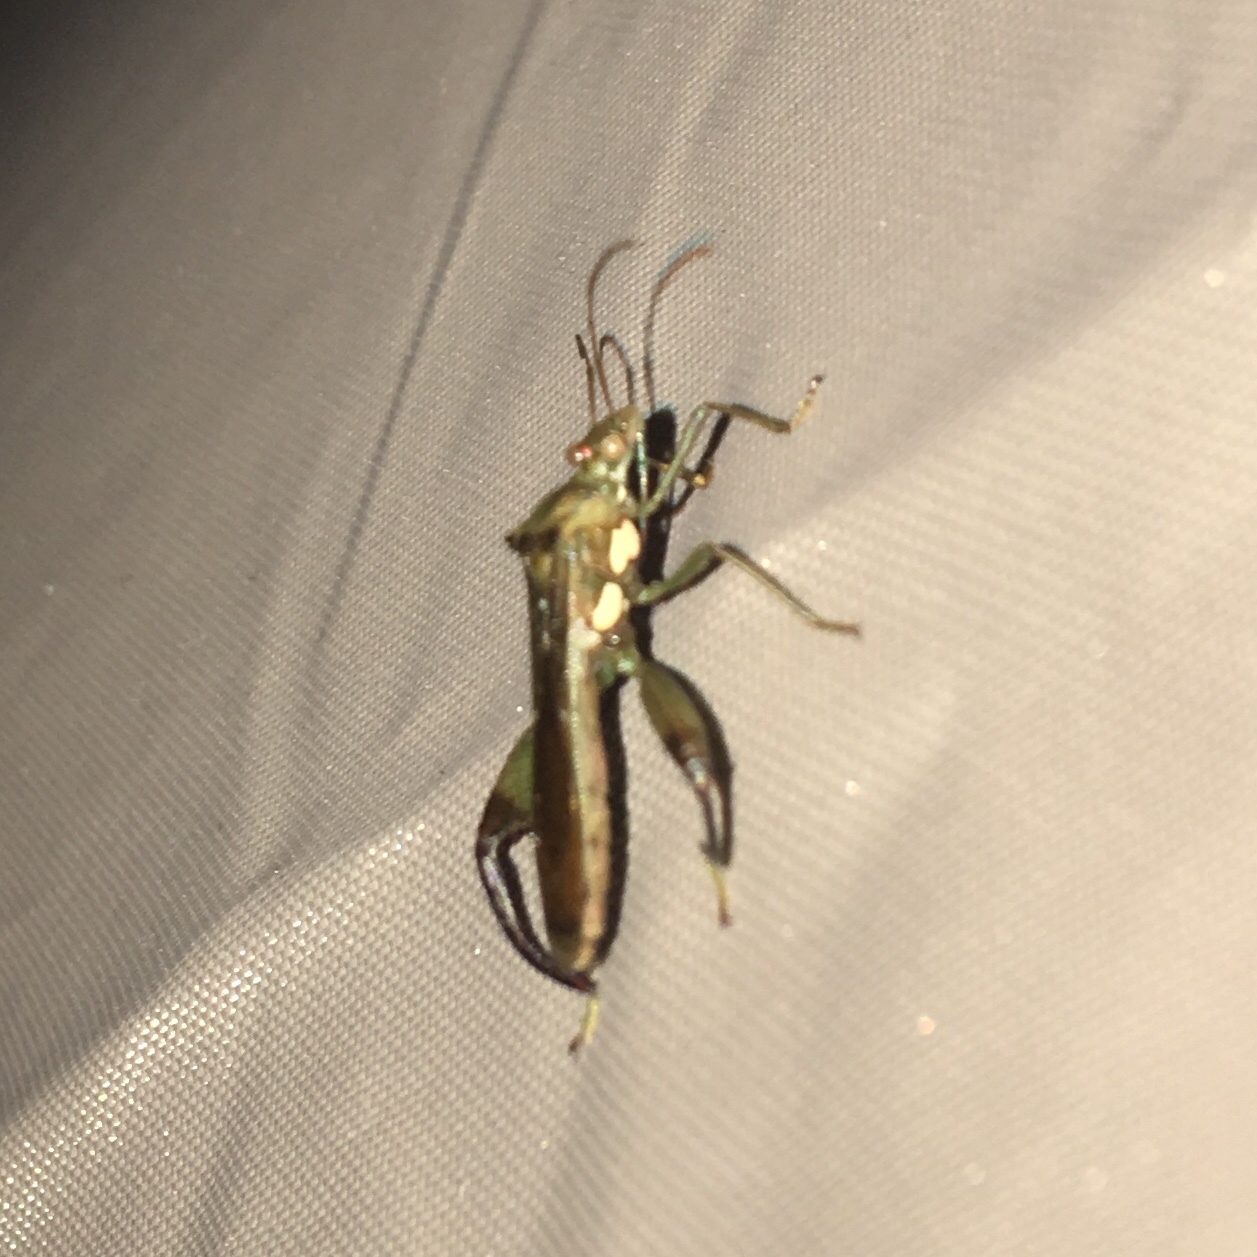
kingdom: Animalia
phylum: Arthropoda
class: Insecta
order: Hemiptera
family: Alydidae
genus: Hyalymenus
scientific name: Hyalymenus tarsatus
